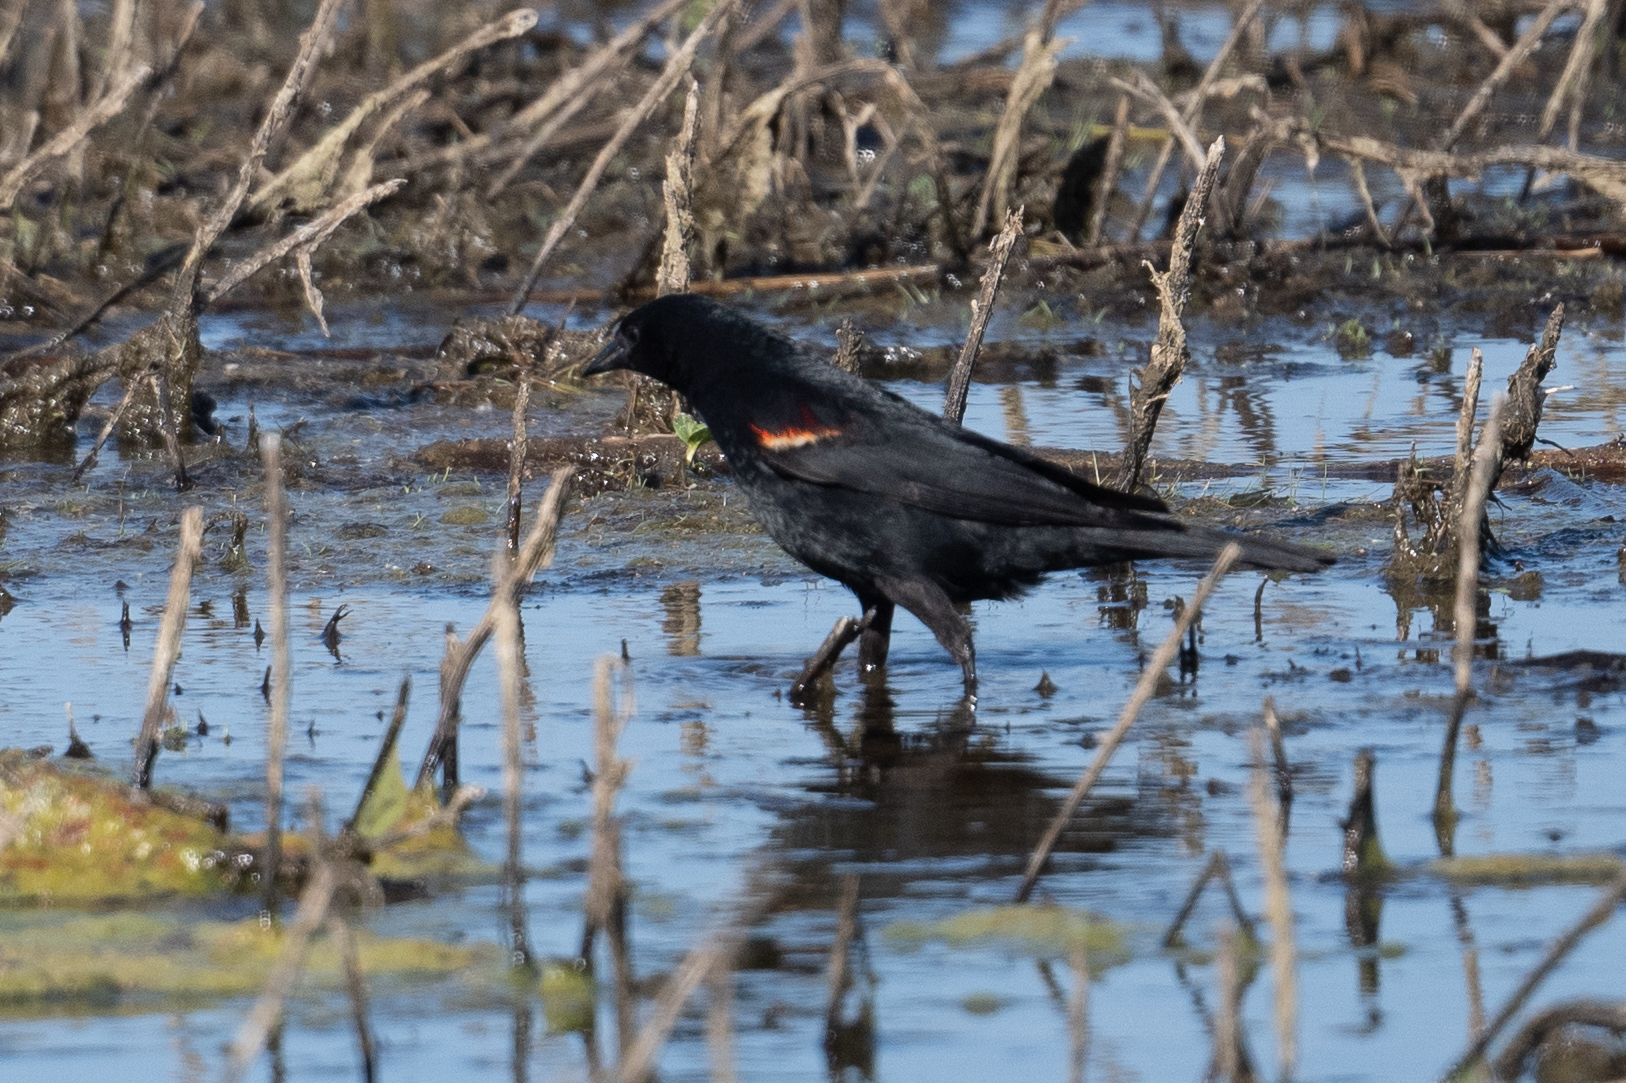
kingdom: Animalia
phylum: Chordata
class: Aves
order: Passeriformes
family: Icteridae
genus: Agelaius
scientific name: Agelaius phoeniceus
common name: Red-winged blackbird
